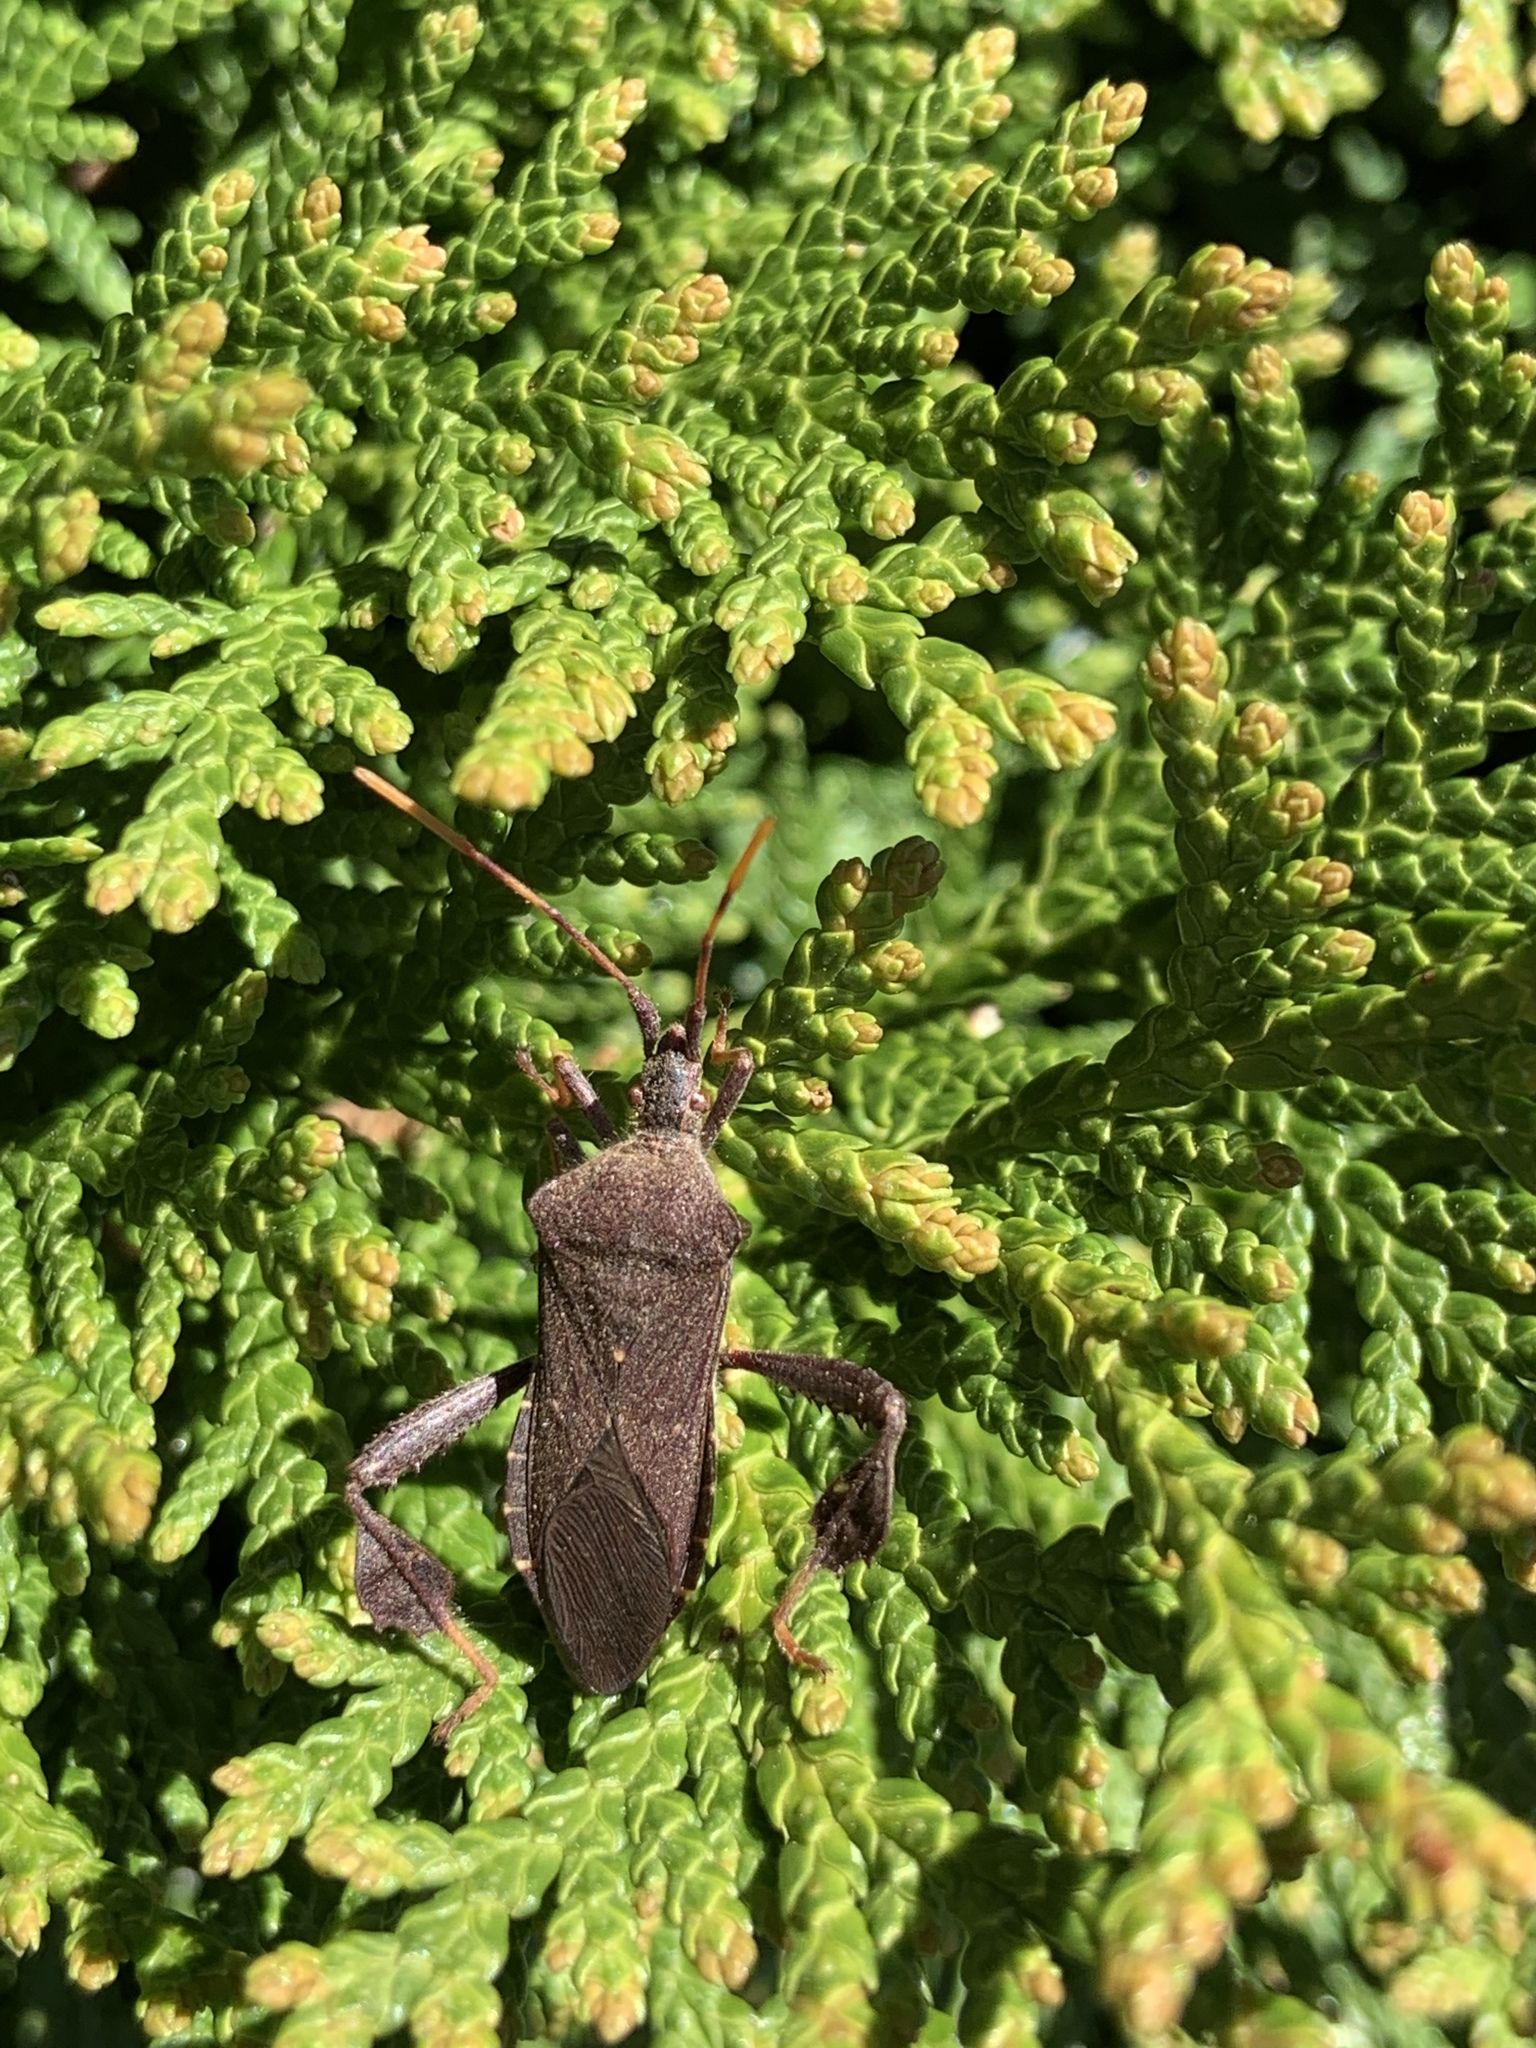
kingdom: Animalia
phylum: Arthropoda
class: Insecta
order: Hemiptera
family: Coreidae
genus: Leptoglossus
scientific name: Leptoglossus oppositus
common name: Northern leaf-footed bug
